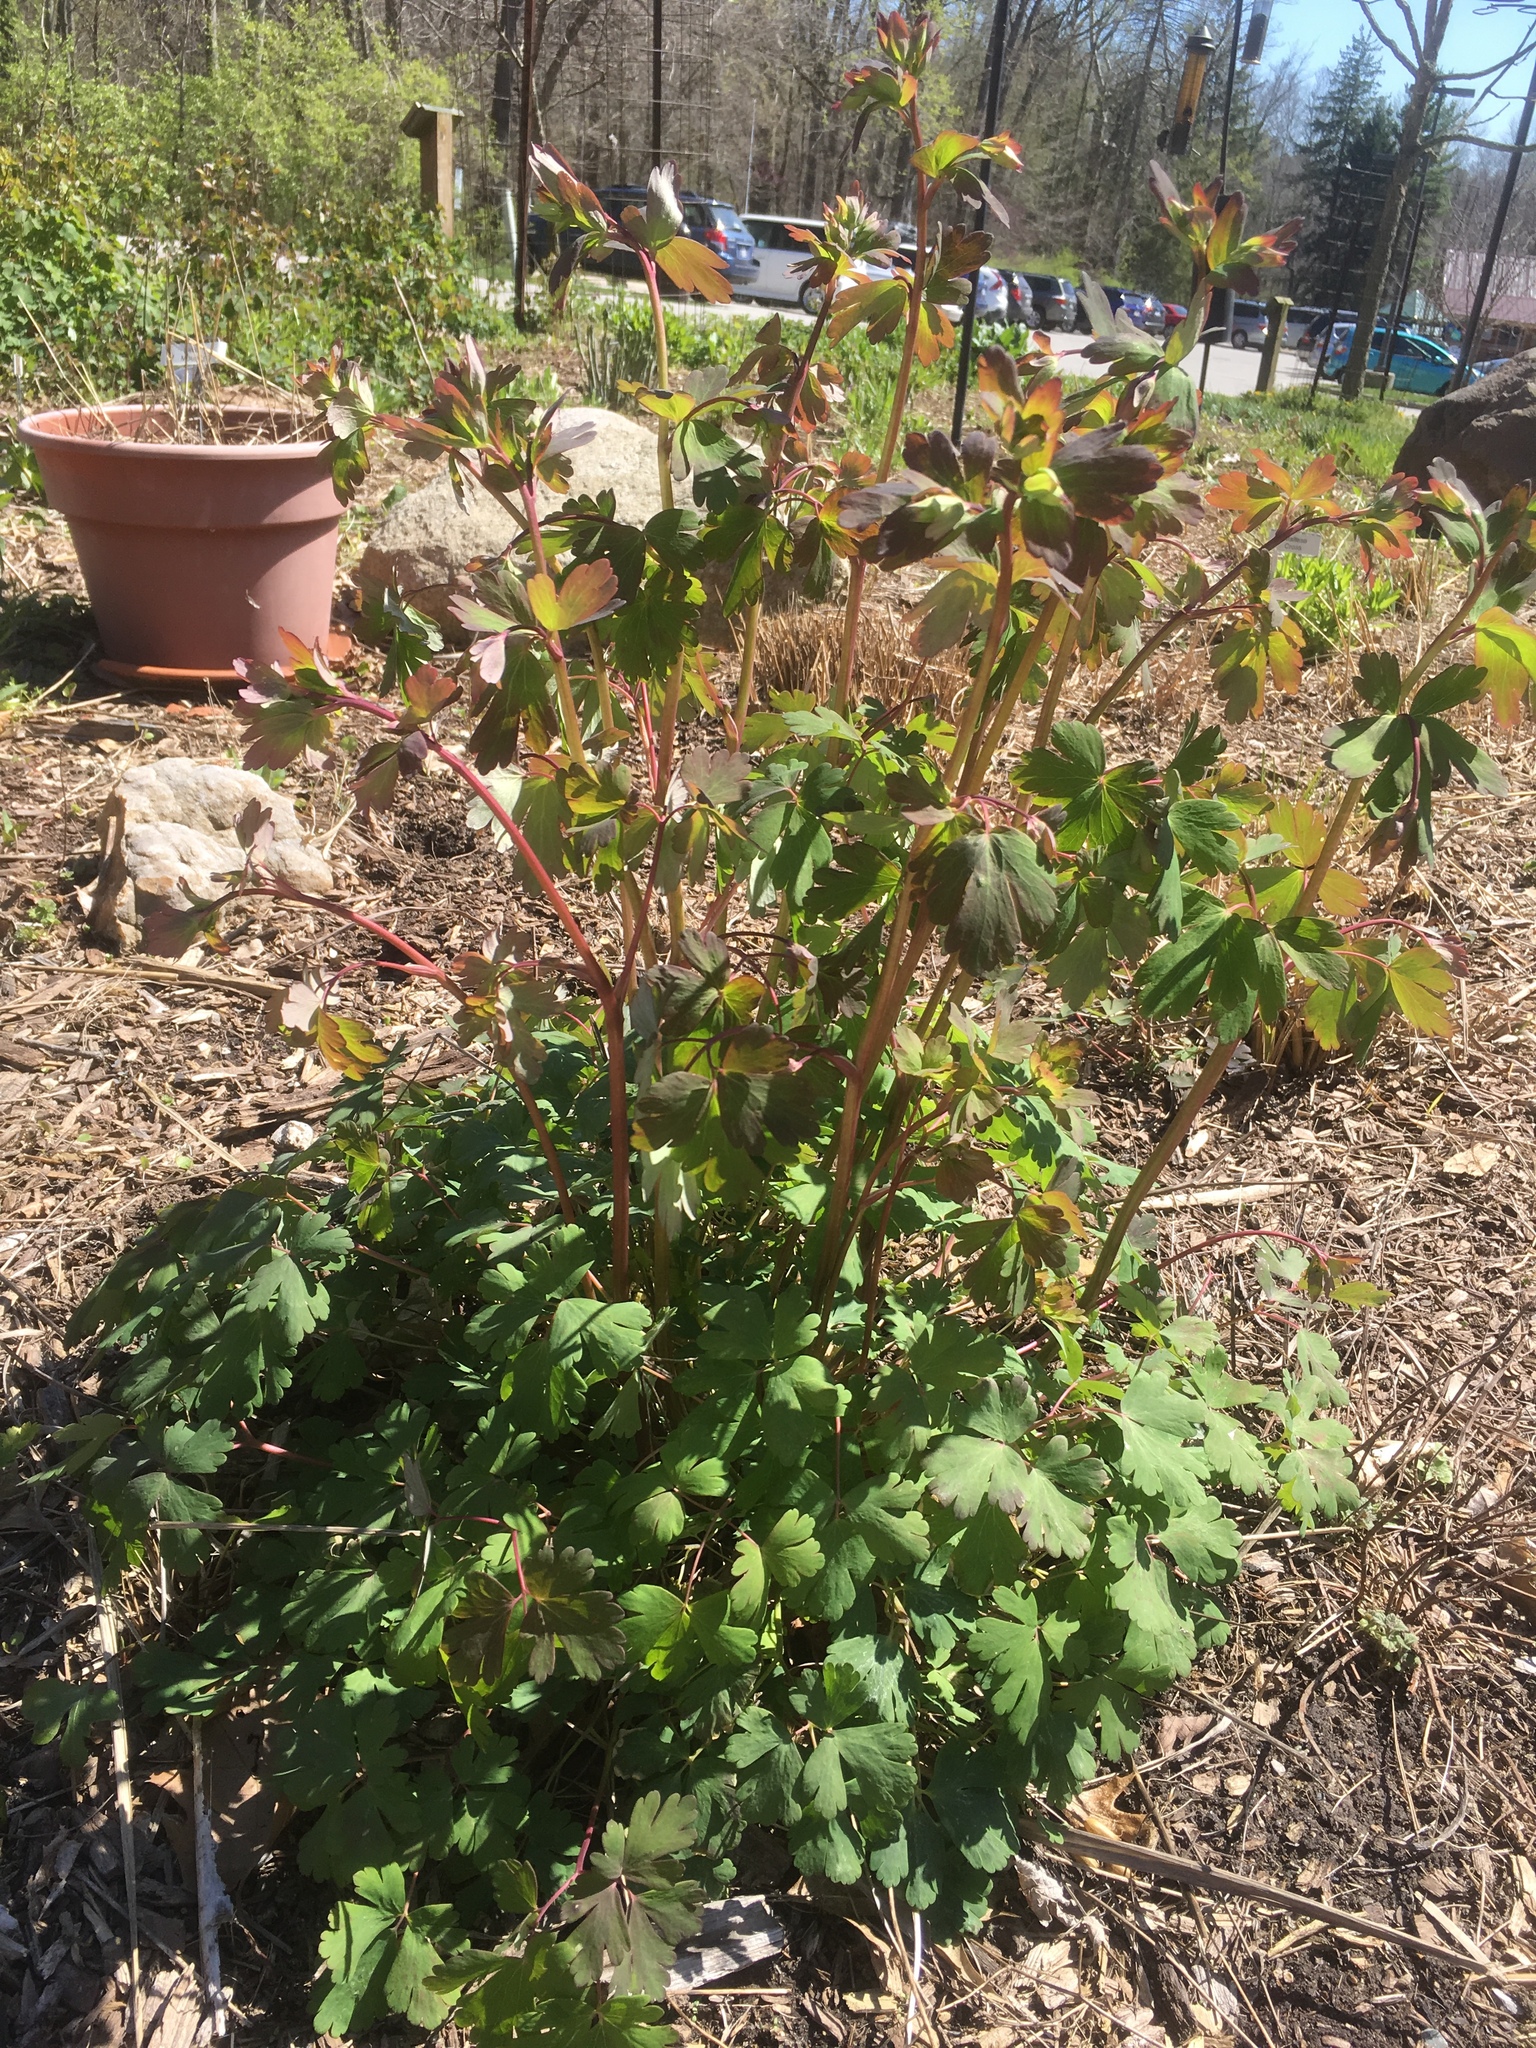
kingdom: Plantae
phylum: Tracheophyta
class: Magnoliopsida
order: Ranunculales
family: Ranunculaceae
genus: Aquilegia
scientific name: Aquilegia canadensis
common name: American columbine
